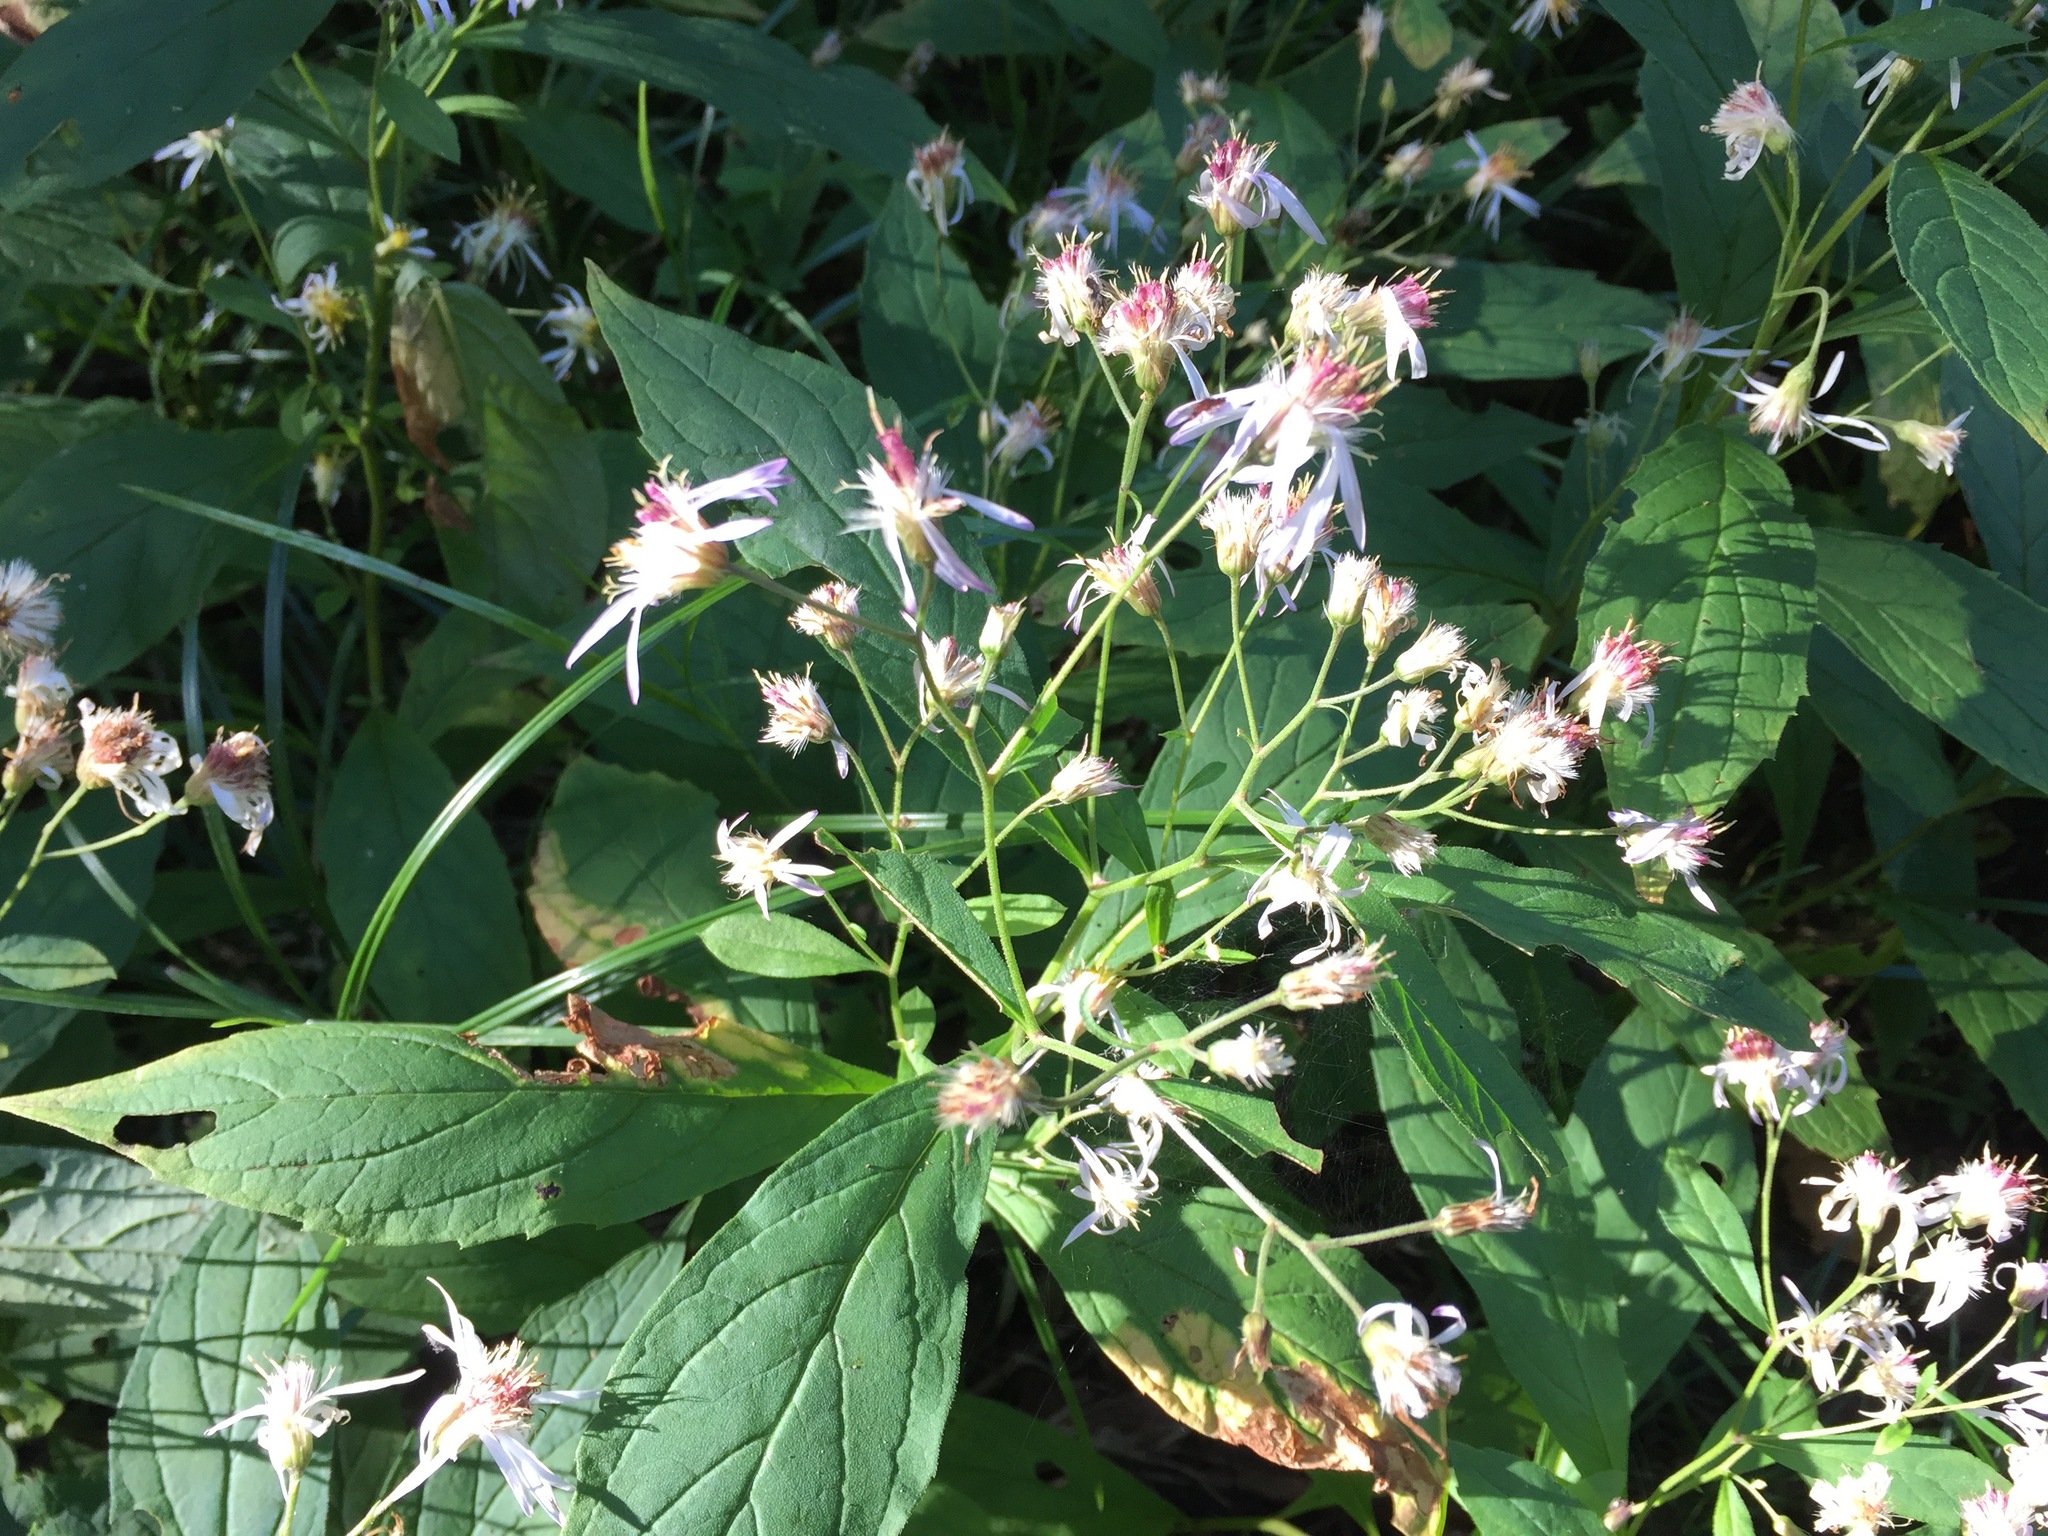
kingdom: Plantae
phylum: Tracheophyta
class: Magnoliopsida
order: Asterales
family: Asteraceae
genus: Oclemena
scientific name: Oclemena acuminata
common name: Mountain aster
